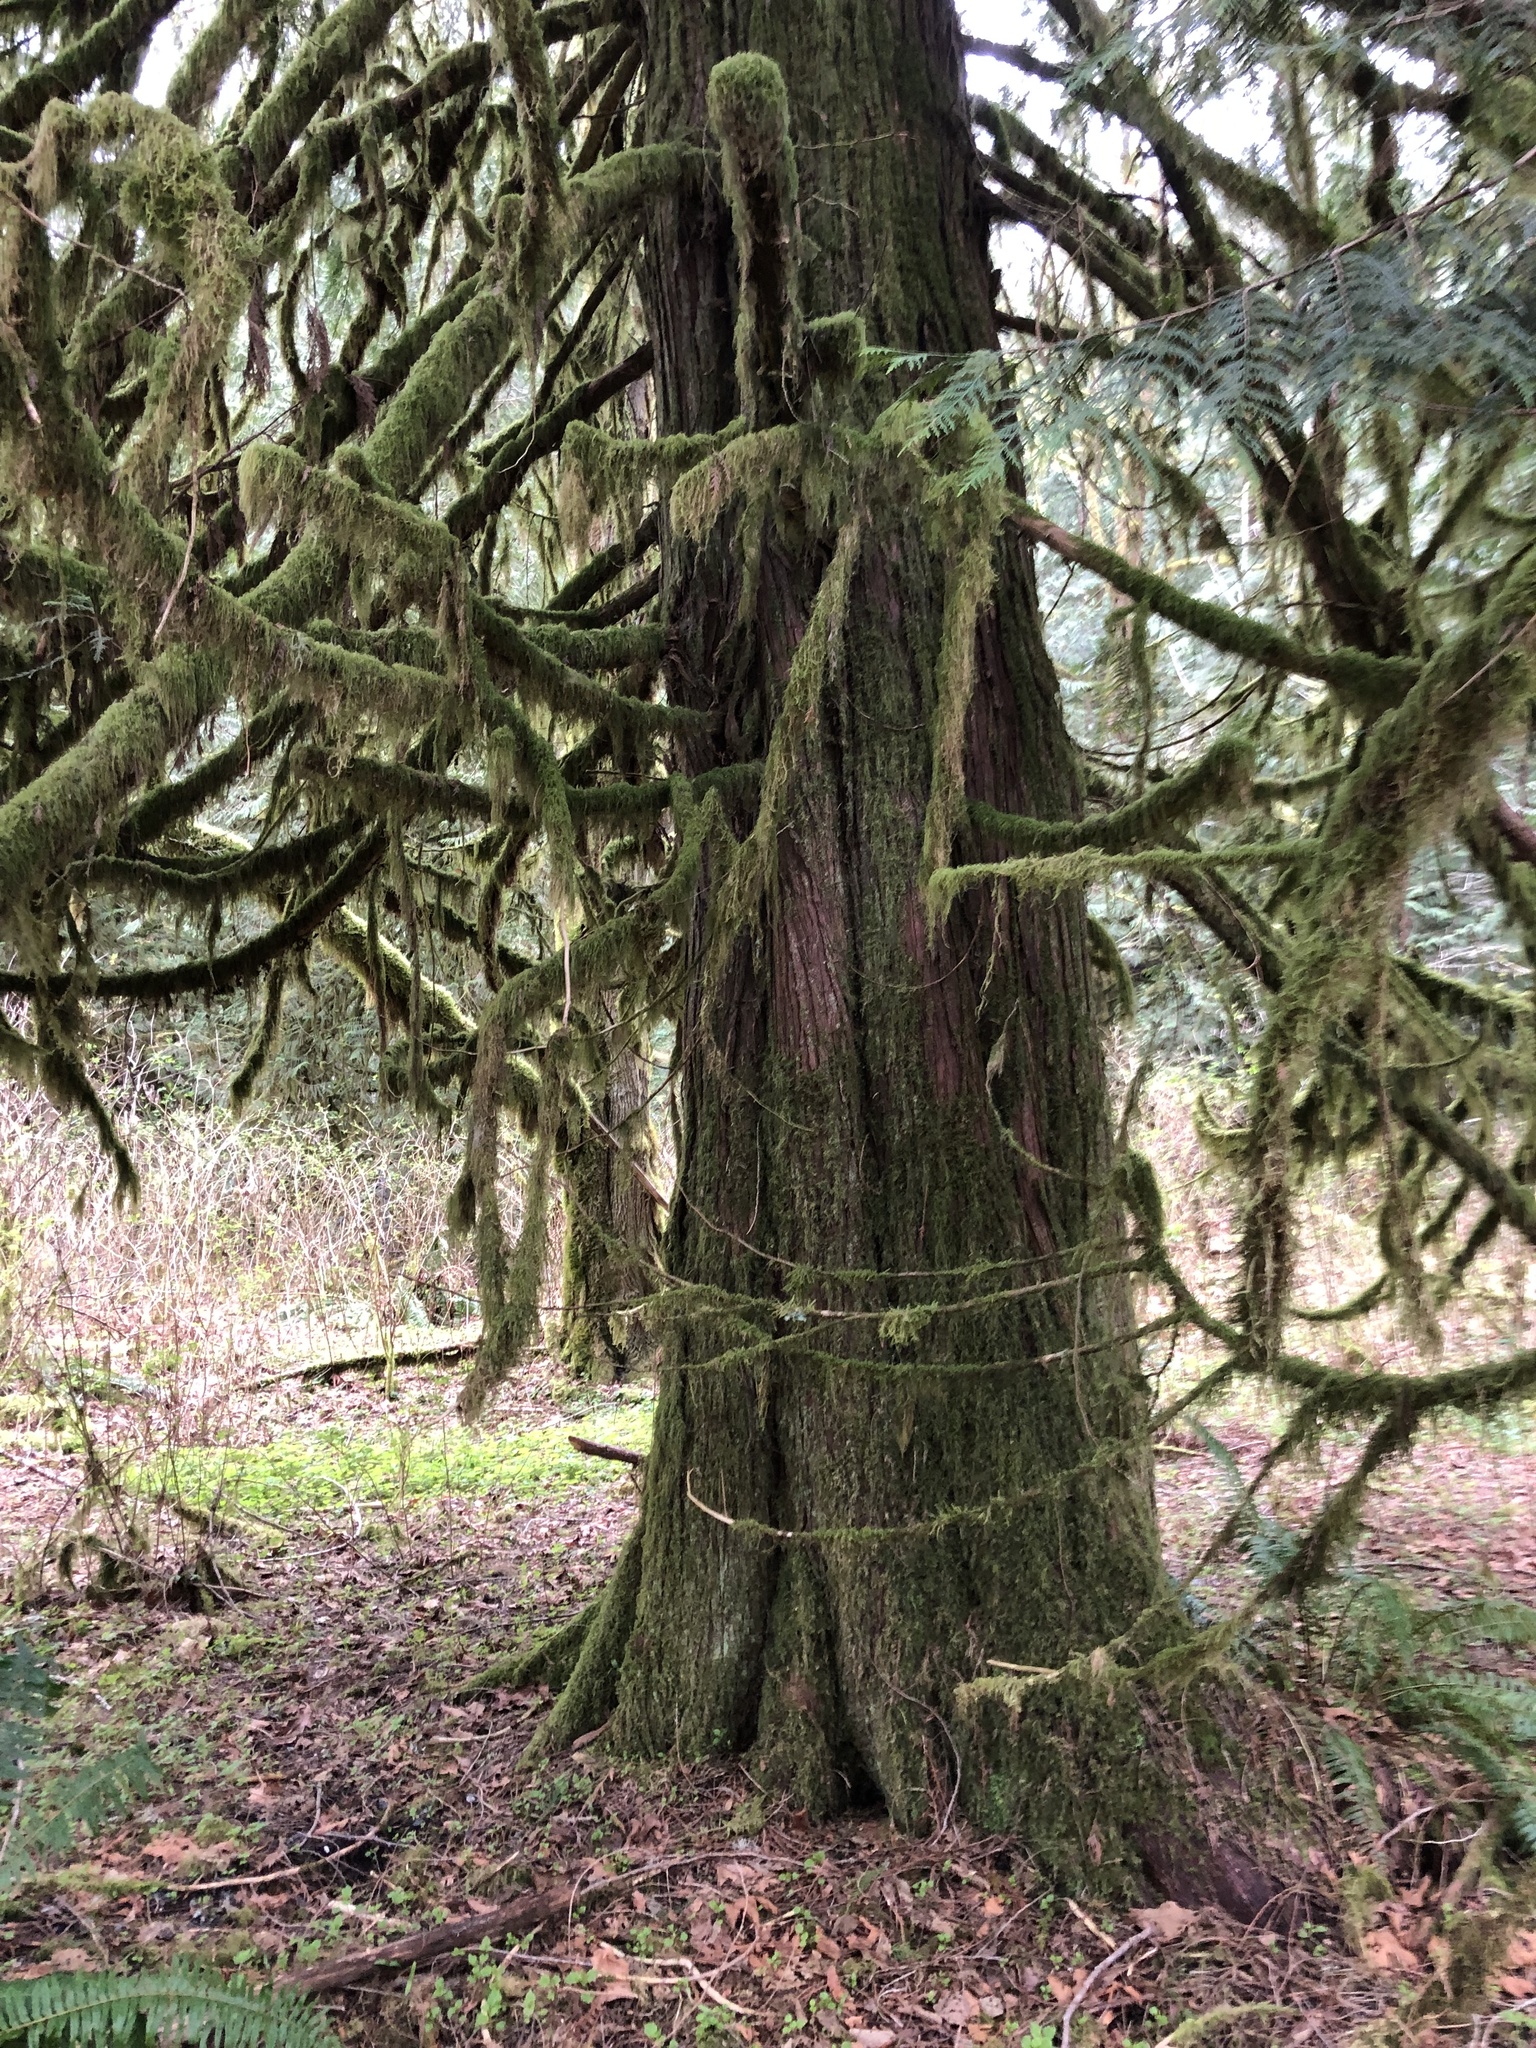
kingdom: Plantae
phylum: Tracheophyta
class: Pinopsida
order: Pinales
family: Cupressaceae
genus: Thuja
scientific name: Thuja plicata
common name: Western red-cedar
